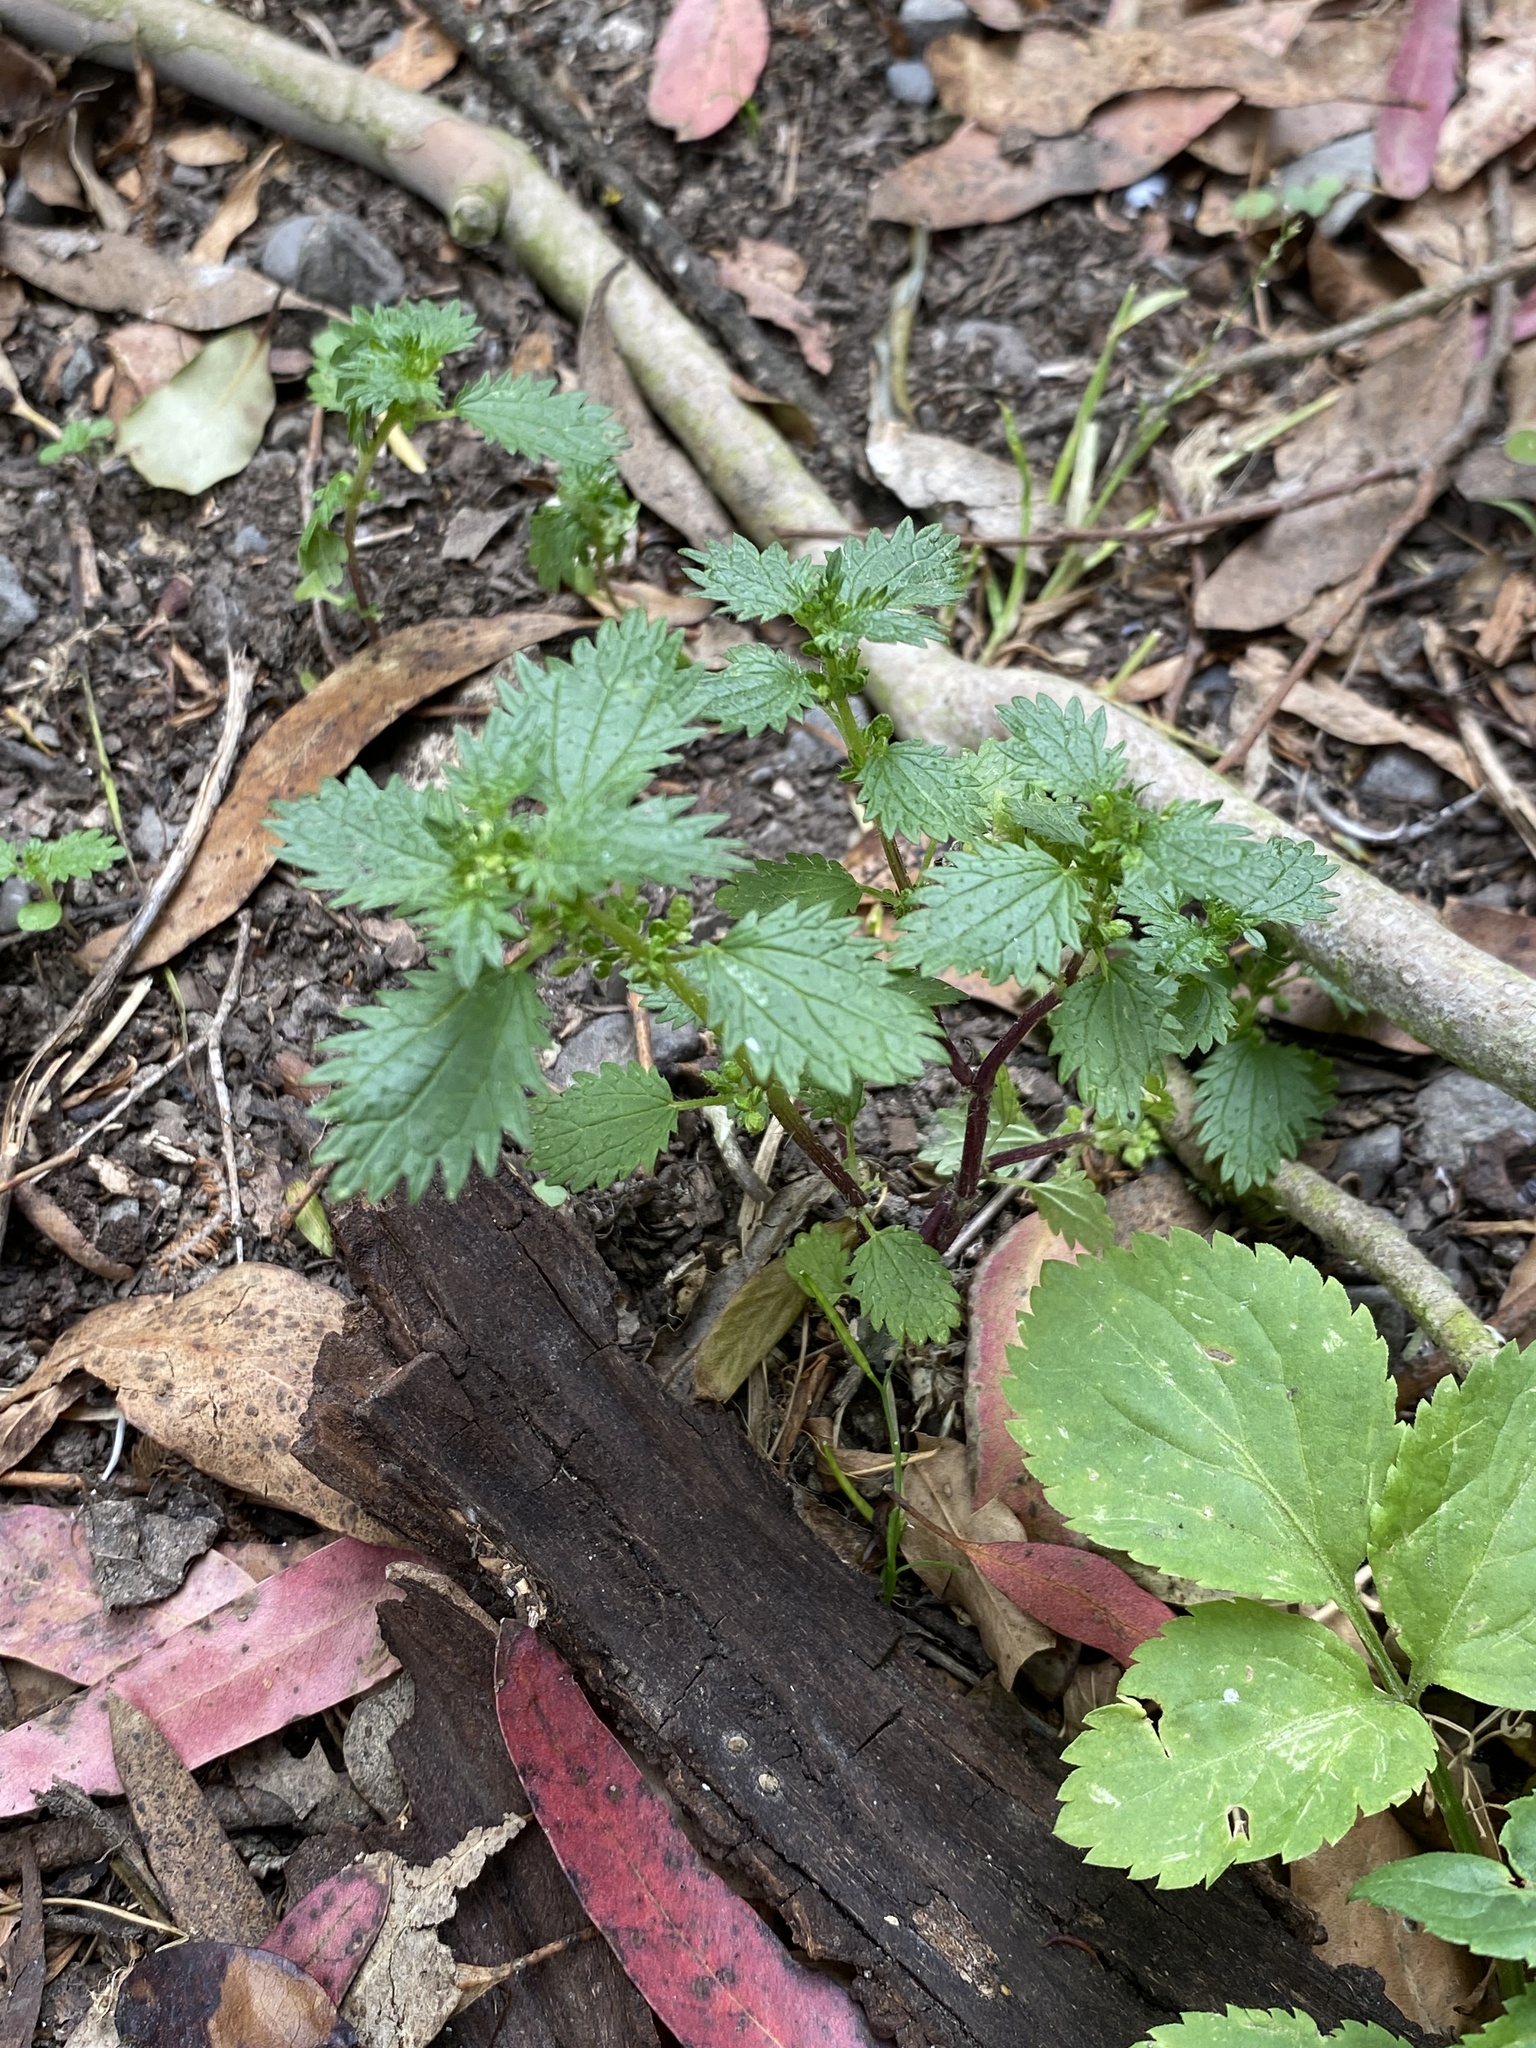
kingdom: Plantae
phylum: Tracheophyta
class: Magnoliopsida
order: Rosales
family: Urticaceae
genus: Urtica
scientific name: Urtica urens
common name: Dwarf nettle
